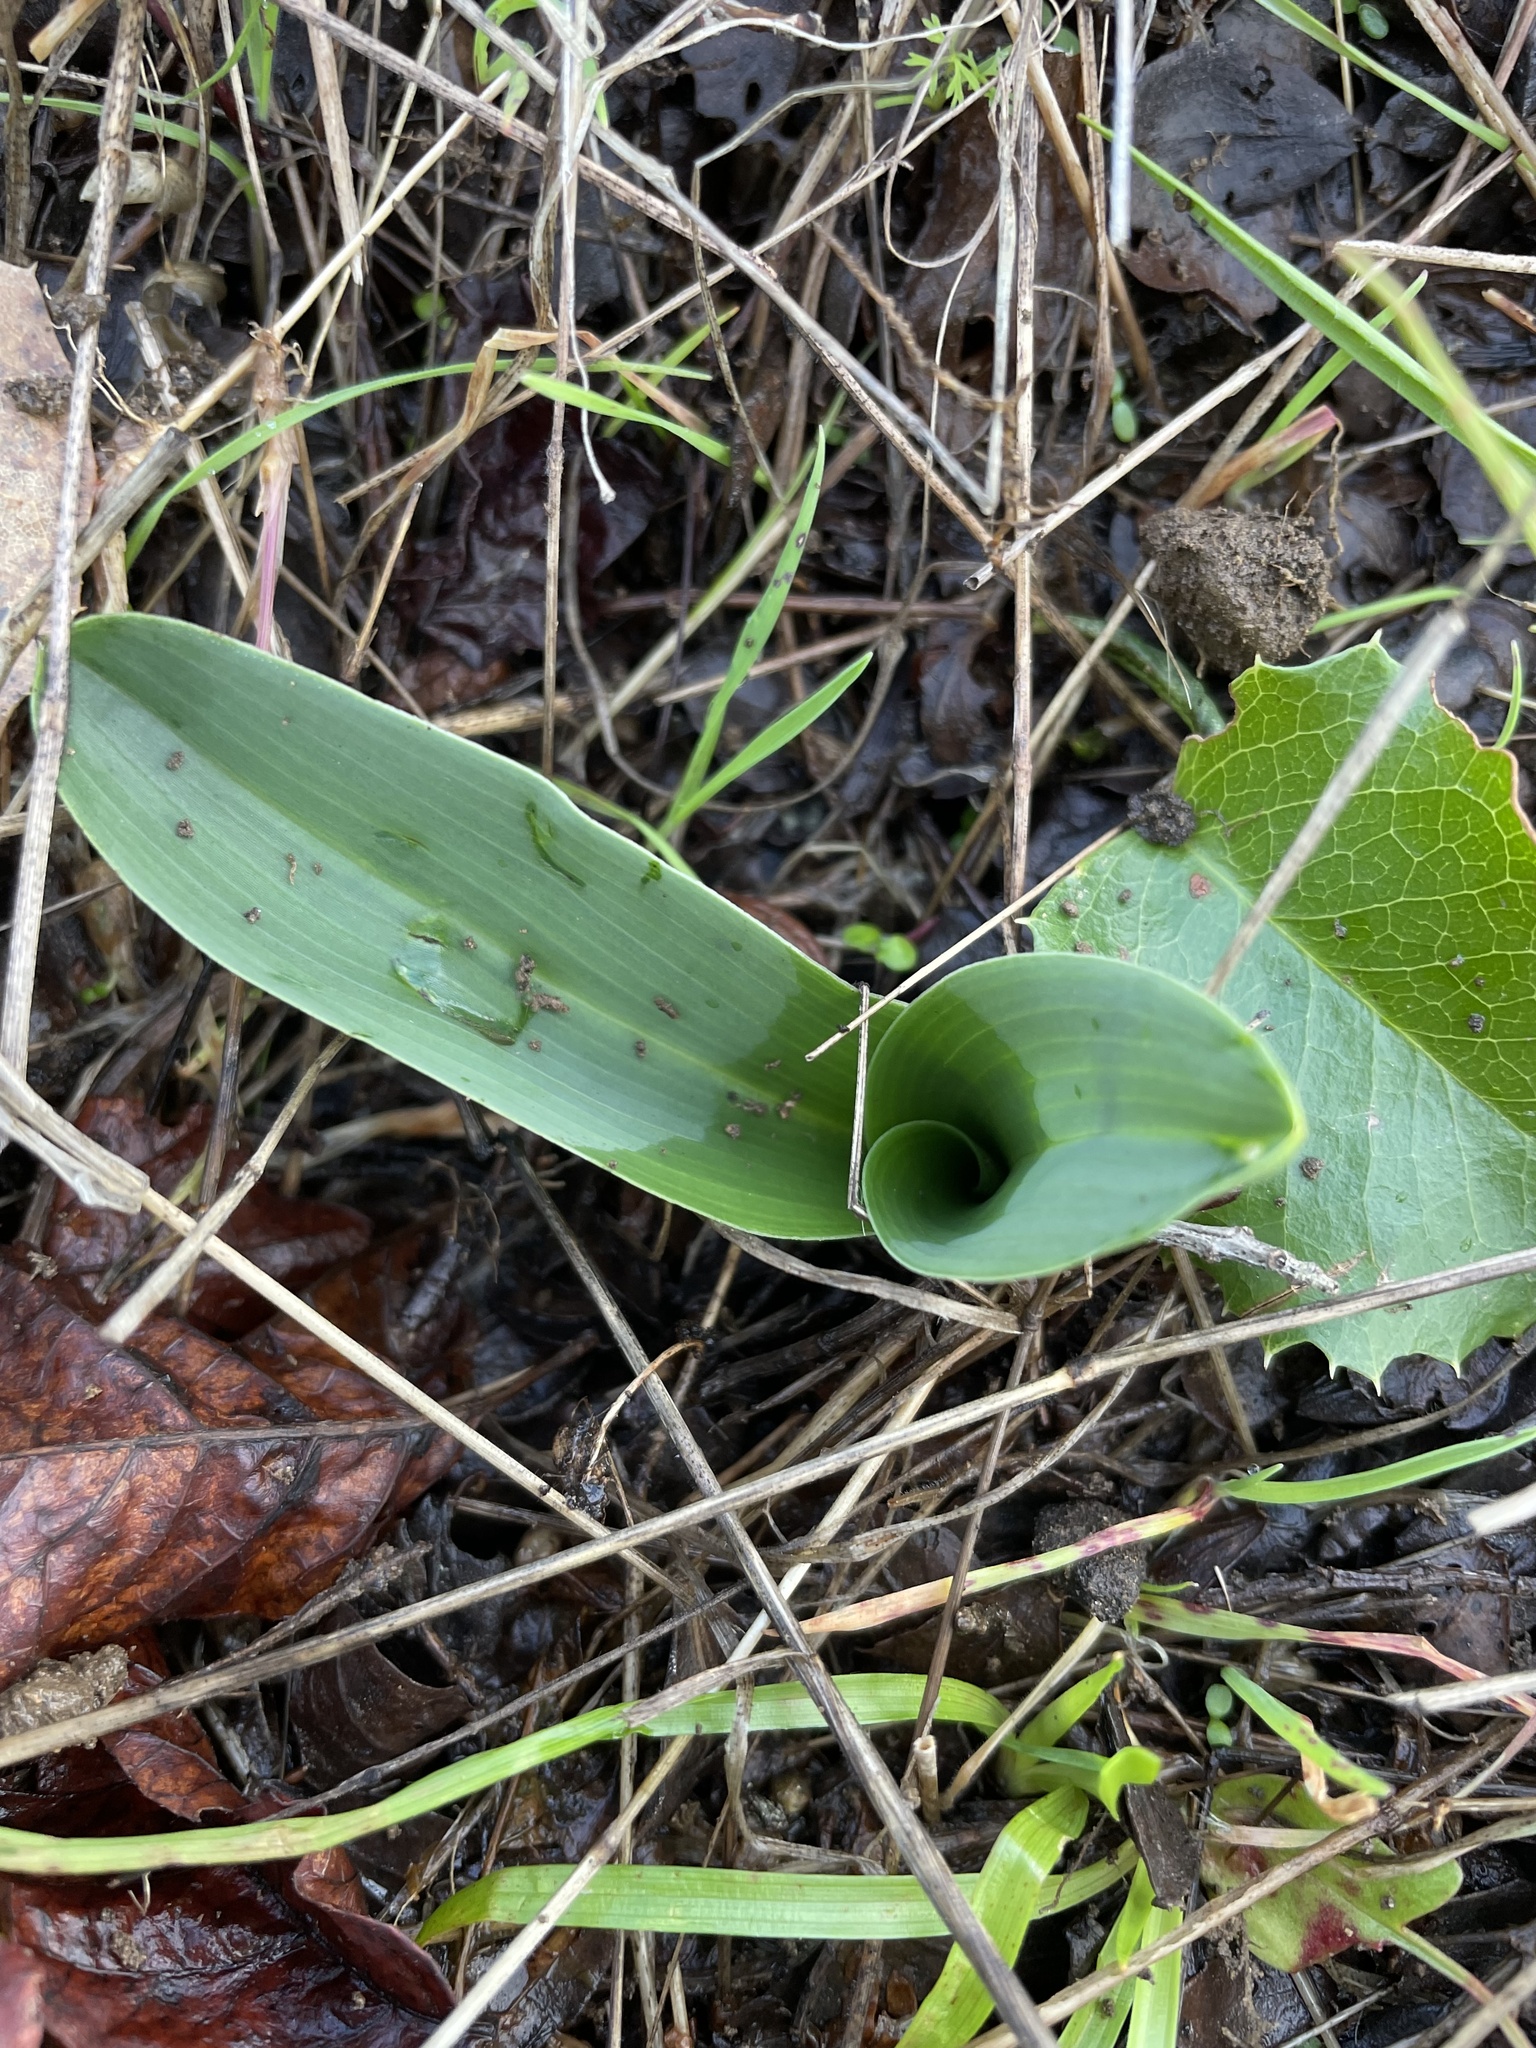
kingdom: Plantae
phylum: Tracheophyta
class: Liliopsida
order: Asparagales
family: Orchidaceae
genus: Platanthera
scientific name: Platanthera elegans
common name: Coast piperia
